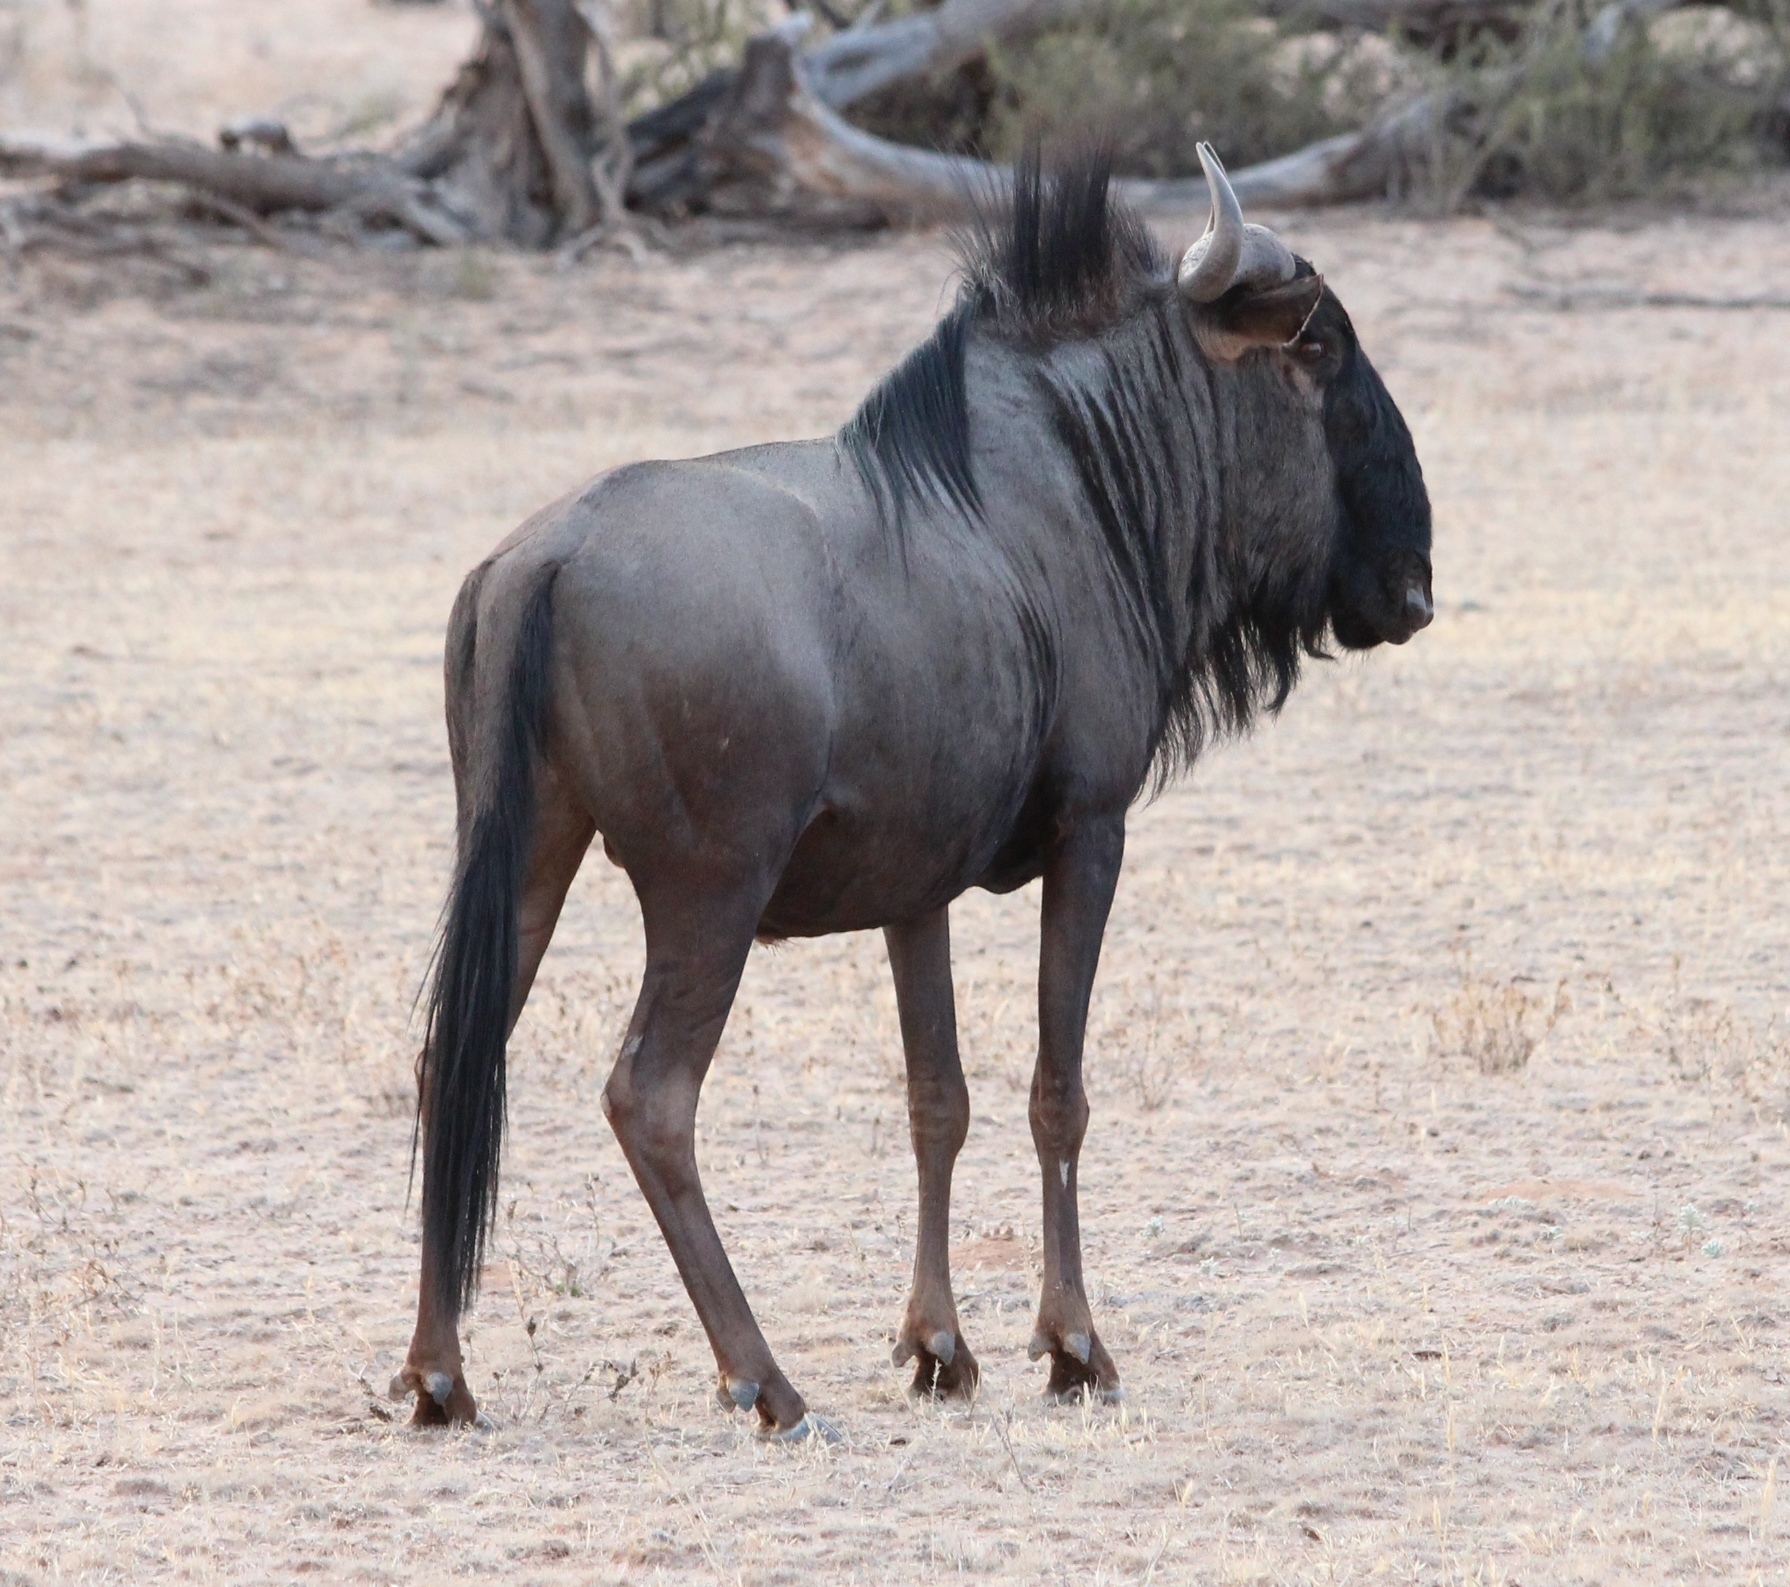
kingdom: Animalia
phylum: Chordata
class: Mammalia
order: Artiodactyla
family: Bovidae
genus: Connochaetes
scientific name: Connochaetes taurinus
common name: Blue wildebeest
